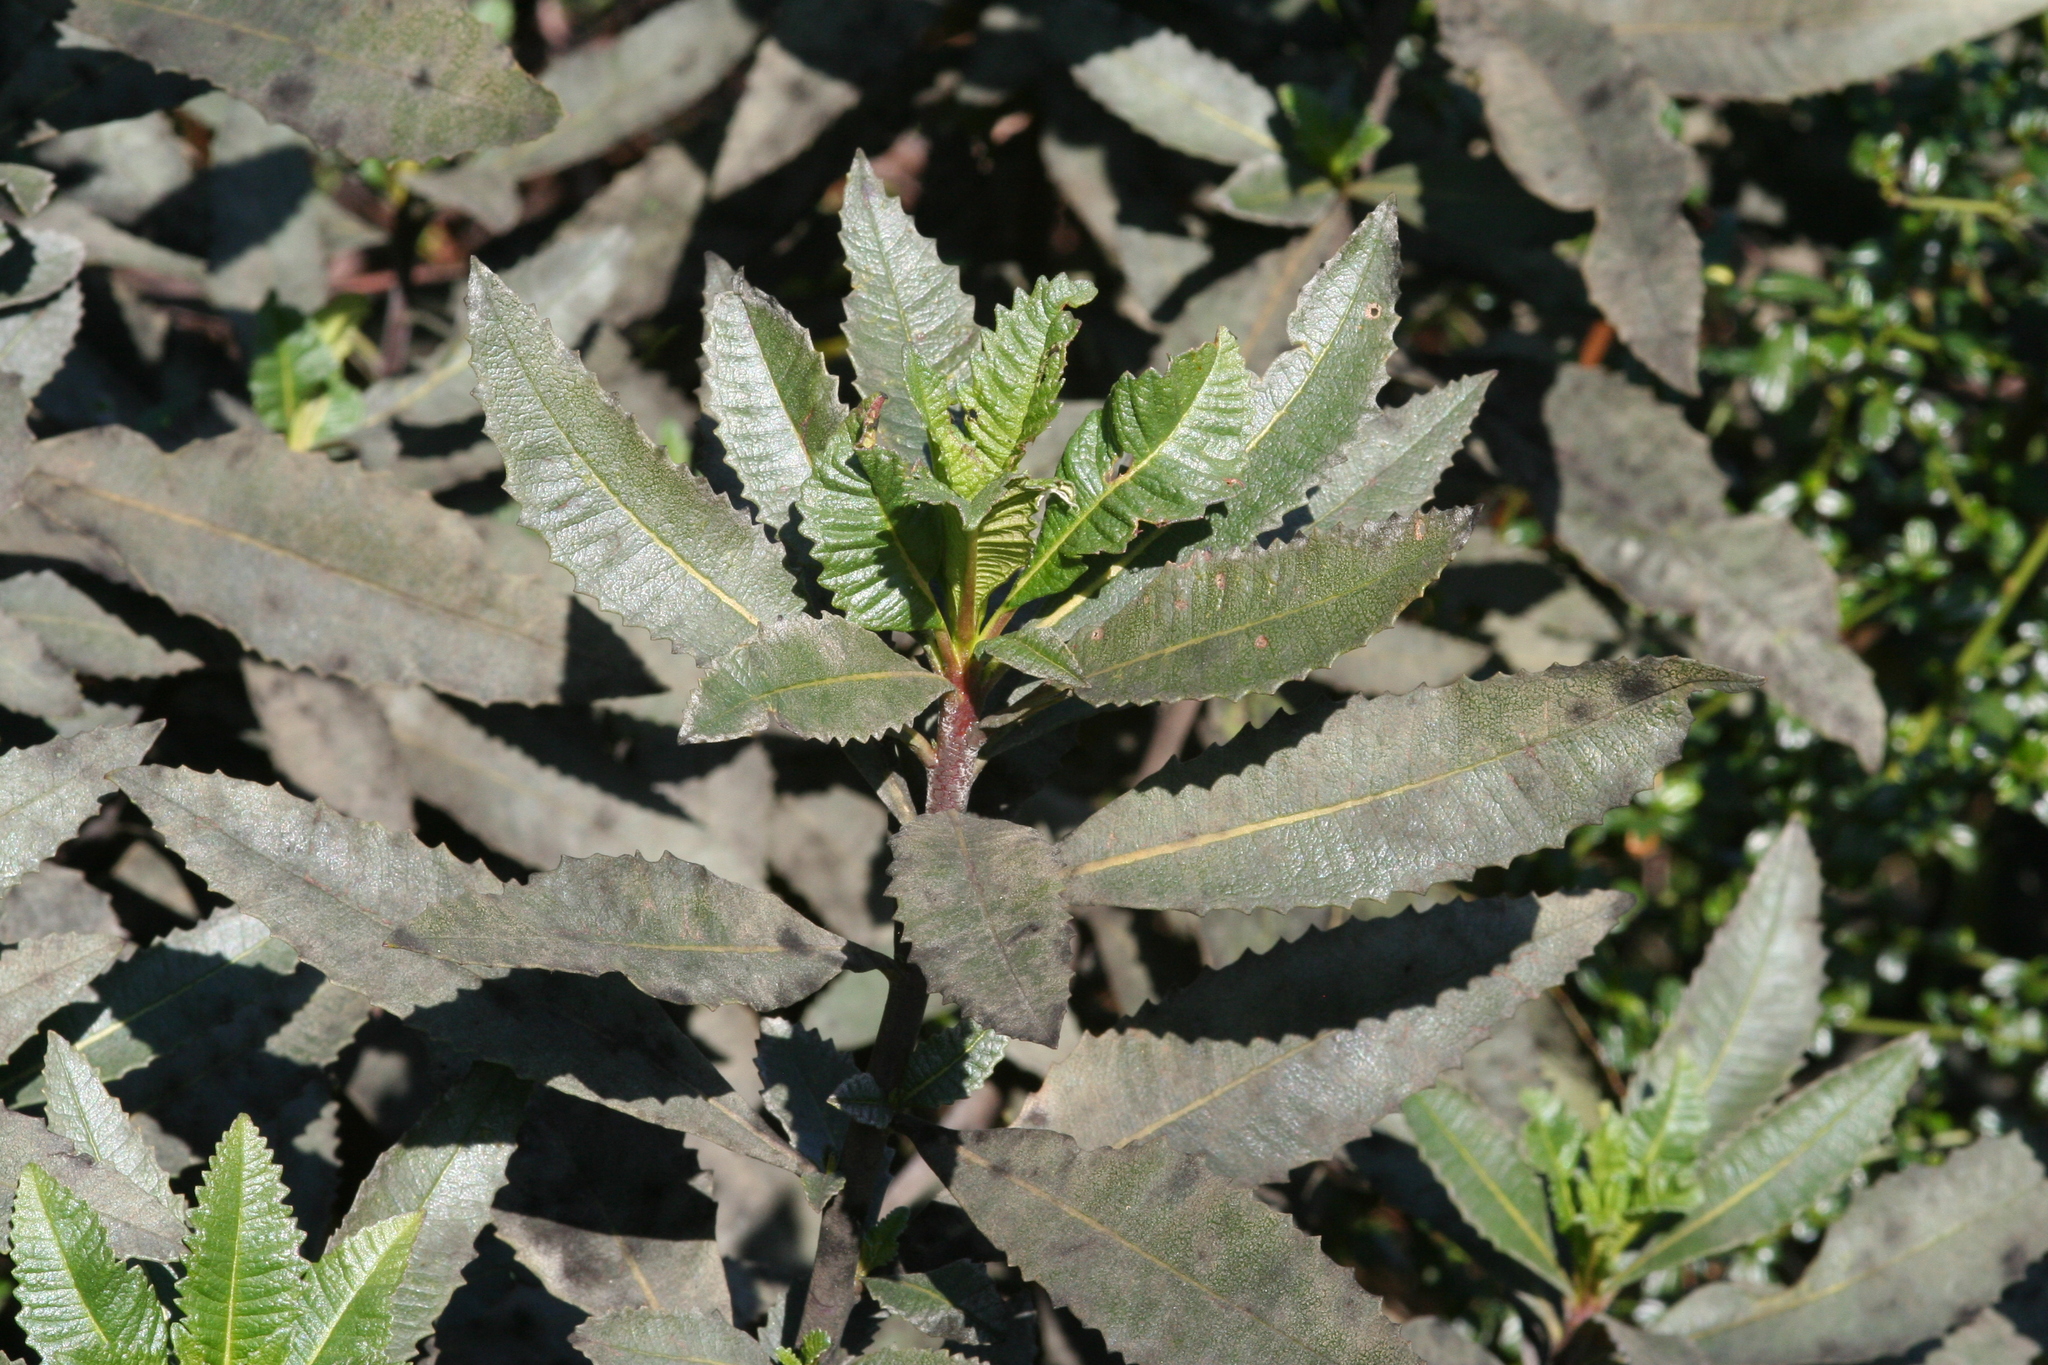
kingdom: Plantae
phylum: Tracheophyta
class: Magnoliopsida
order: Boraginales
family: Namaceae
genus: Eriodictyon
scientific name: Eriodictyon californicum
